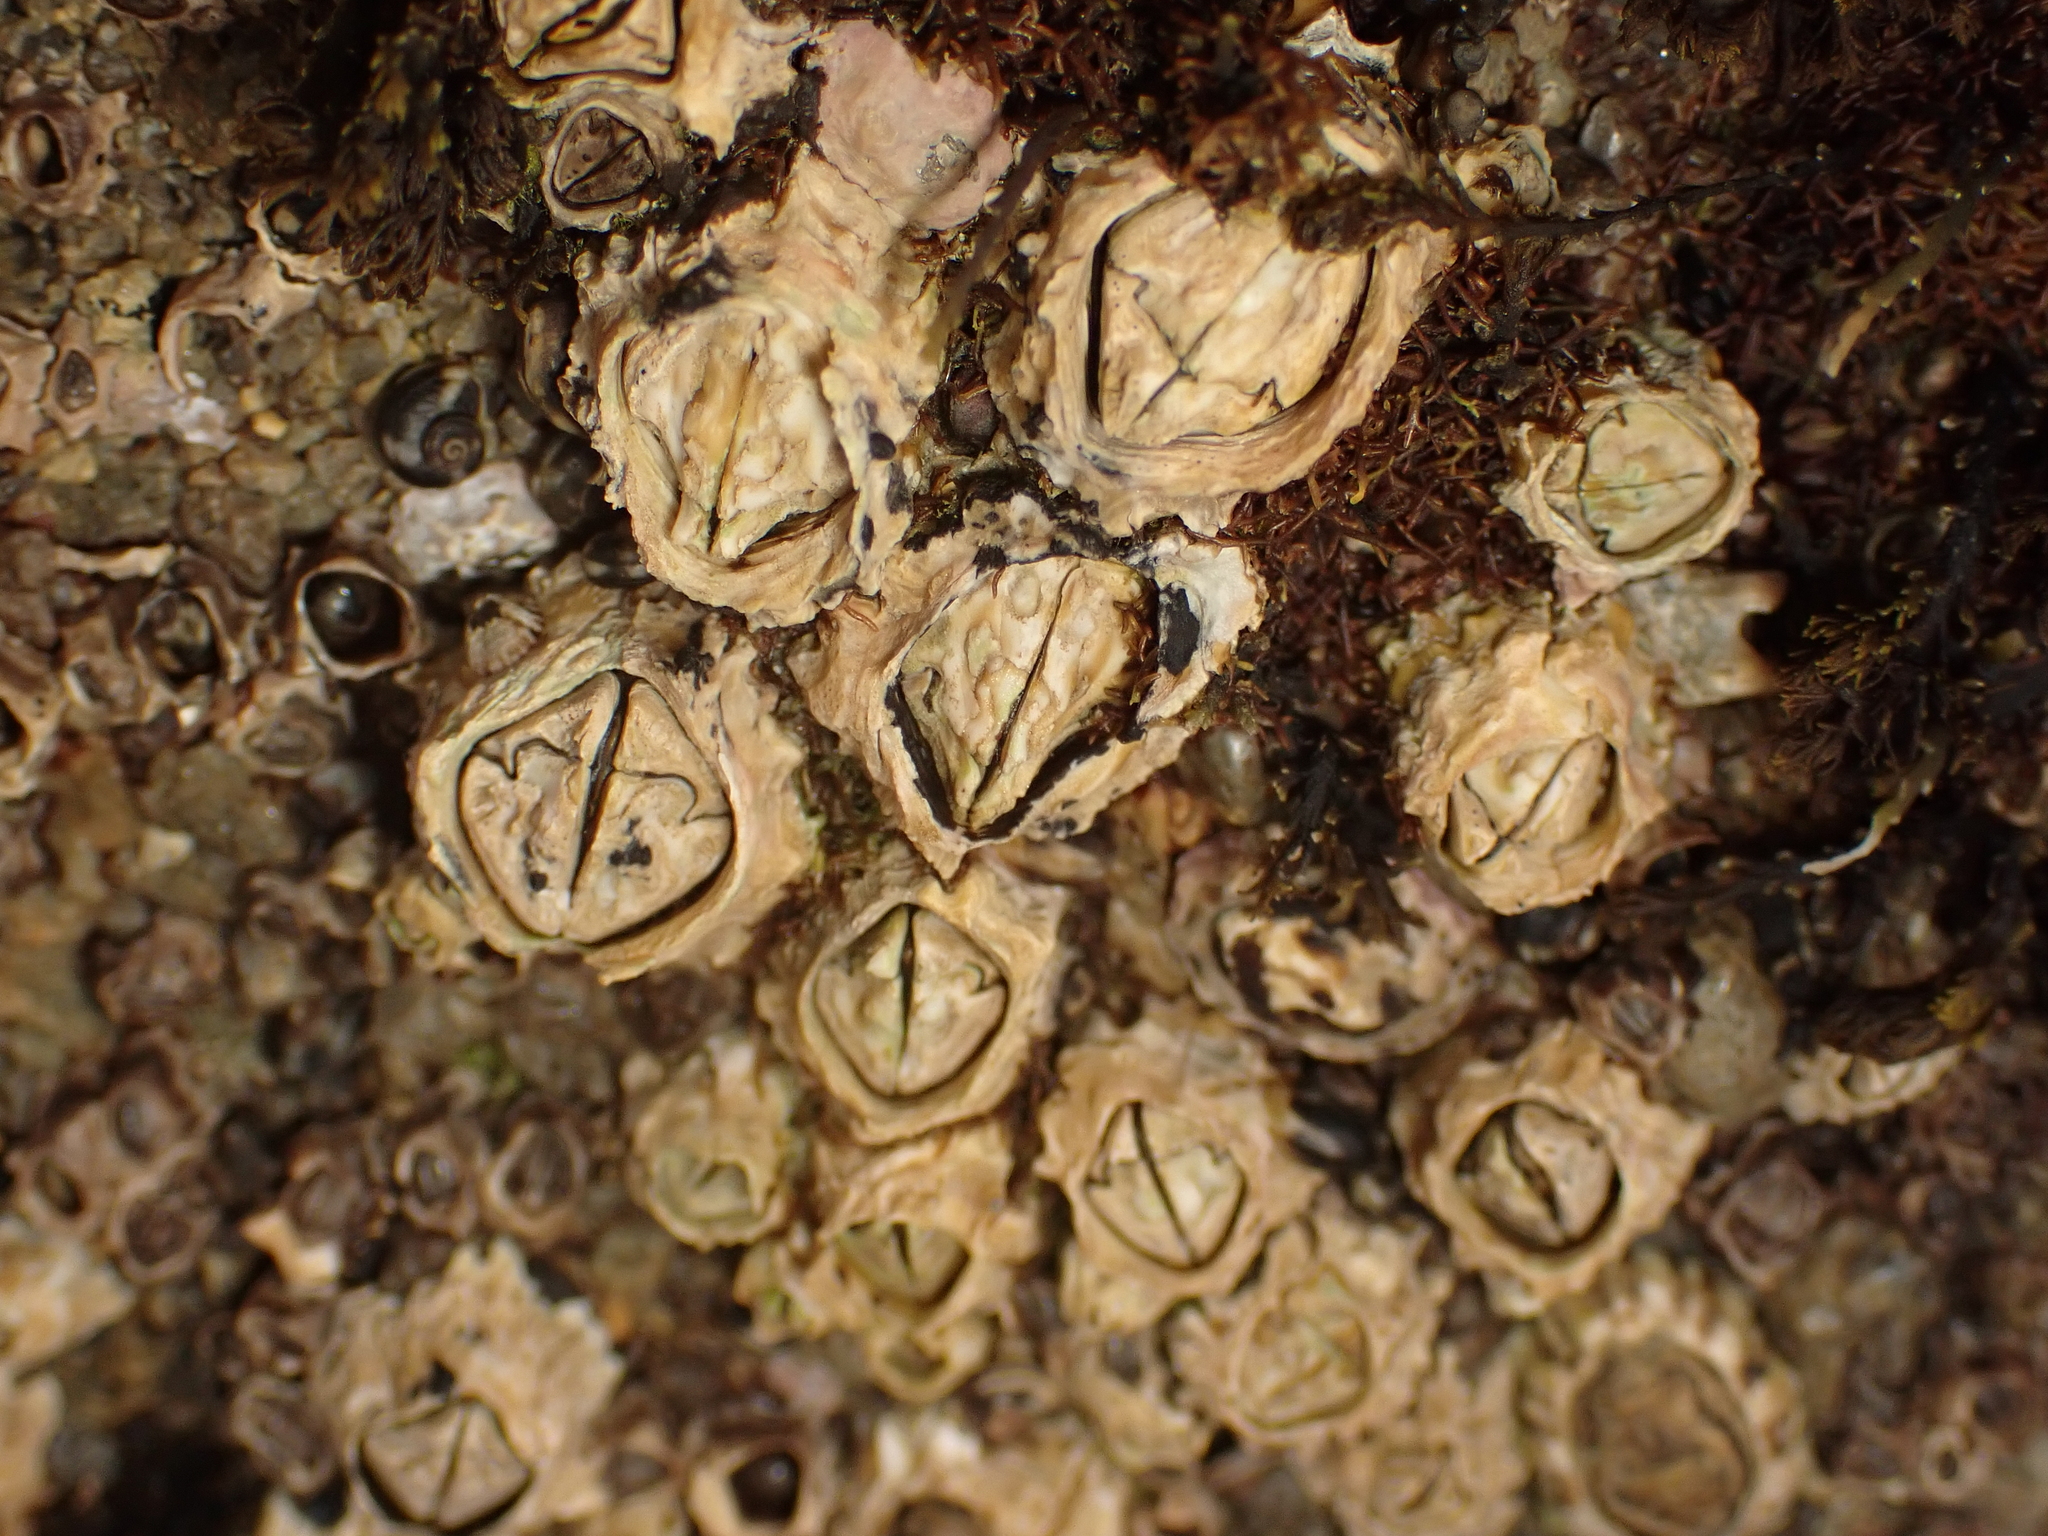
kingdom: Animalia
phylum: Arthropoda
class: Maxillopoda
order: Sessilia
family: Tetraclitidae
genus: Epopella
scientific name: Epopella plicata
